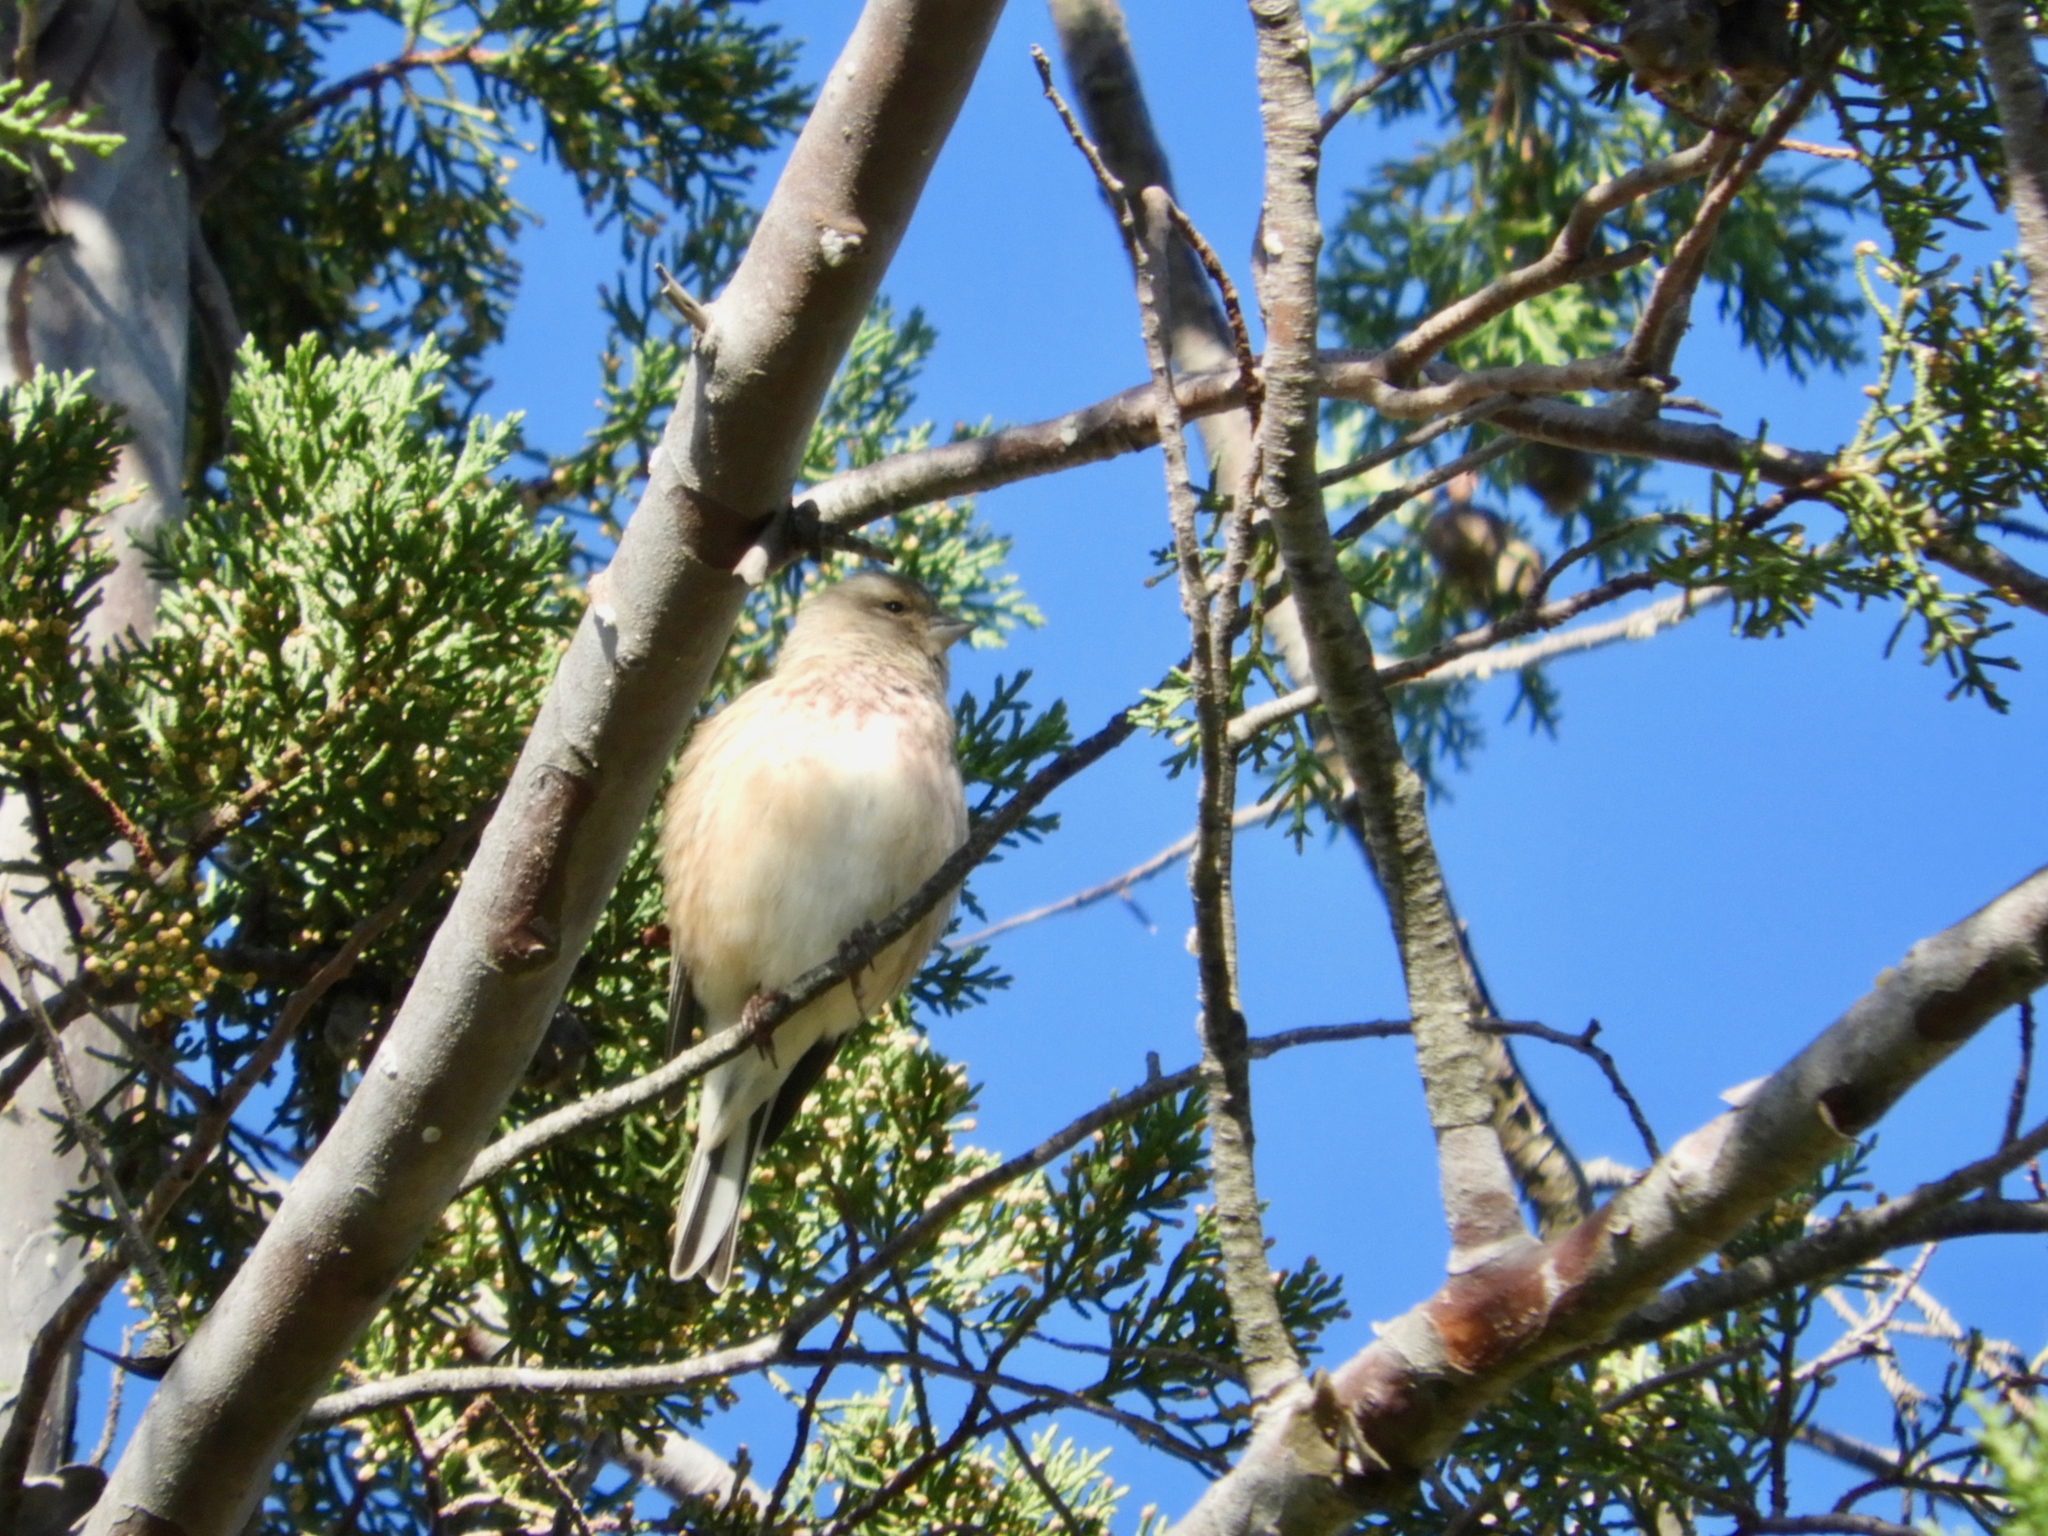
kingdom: Animalia
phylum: Chordata
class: Aves
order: Passeriformes
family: Fringillidae
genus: Linaria
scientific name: Linaria cannabina
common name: Common linnet
